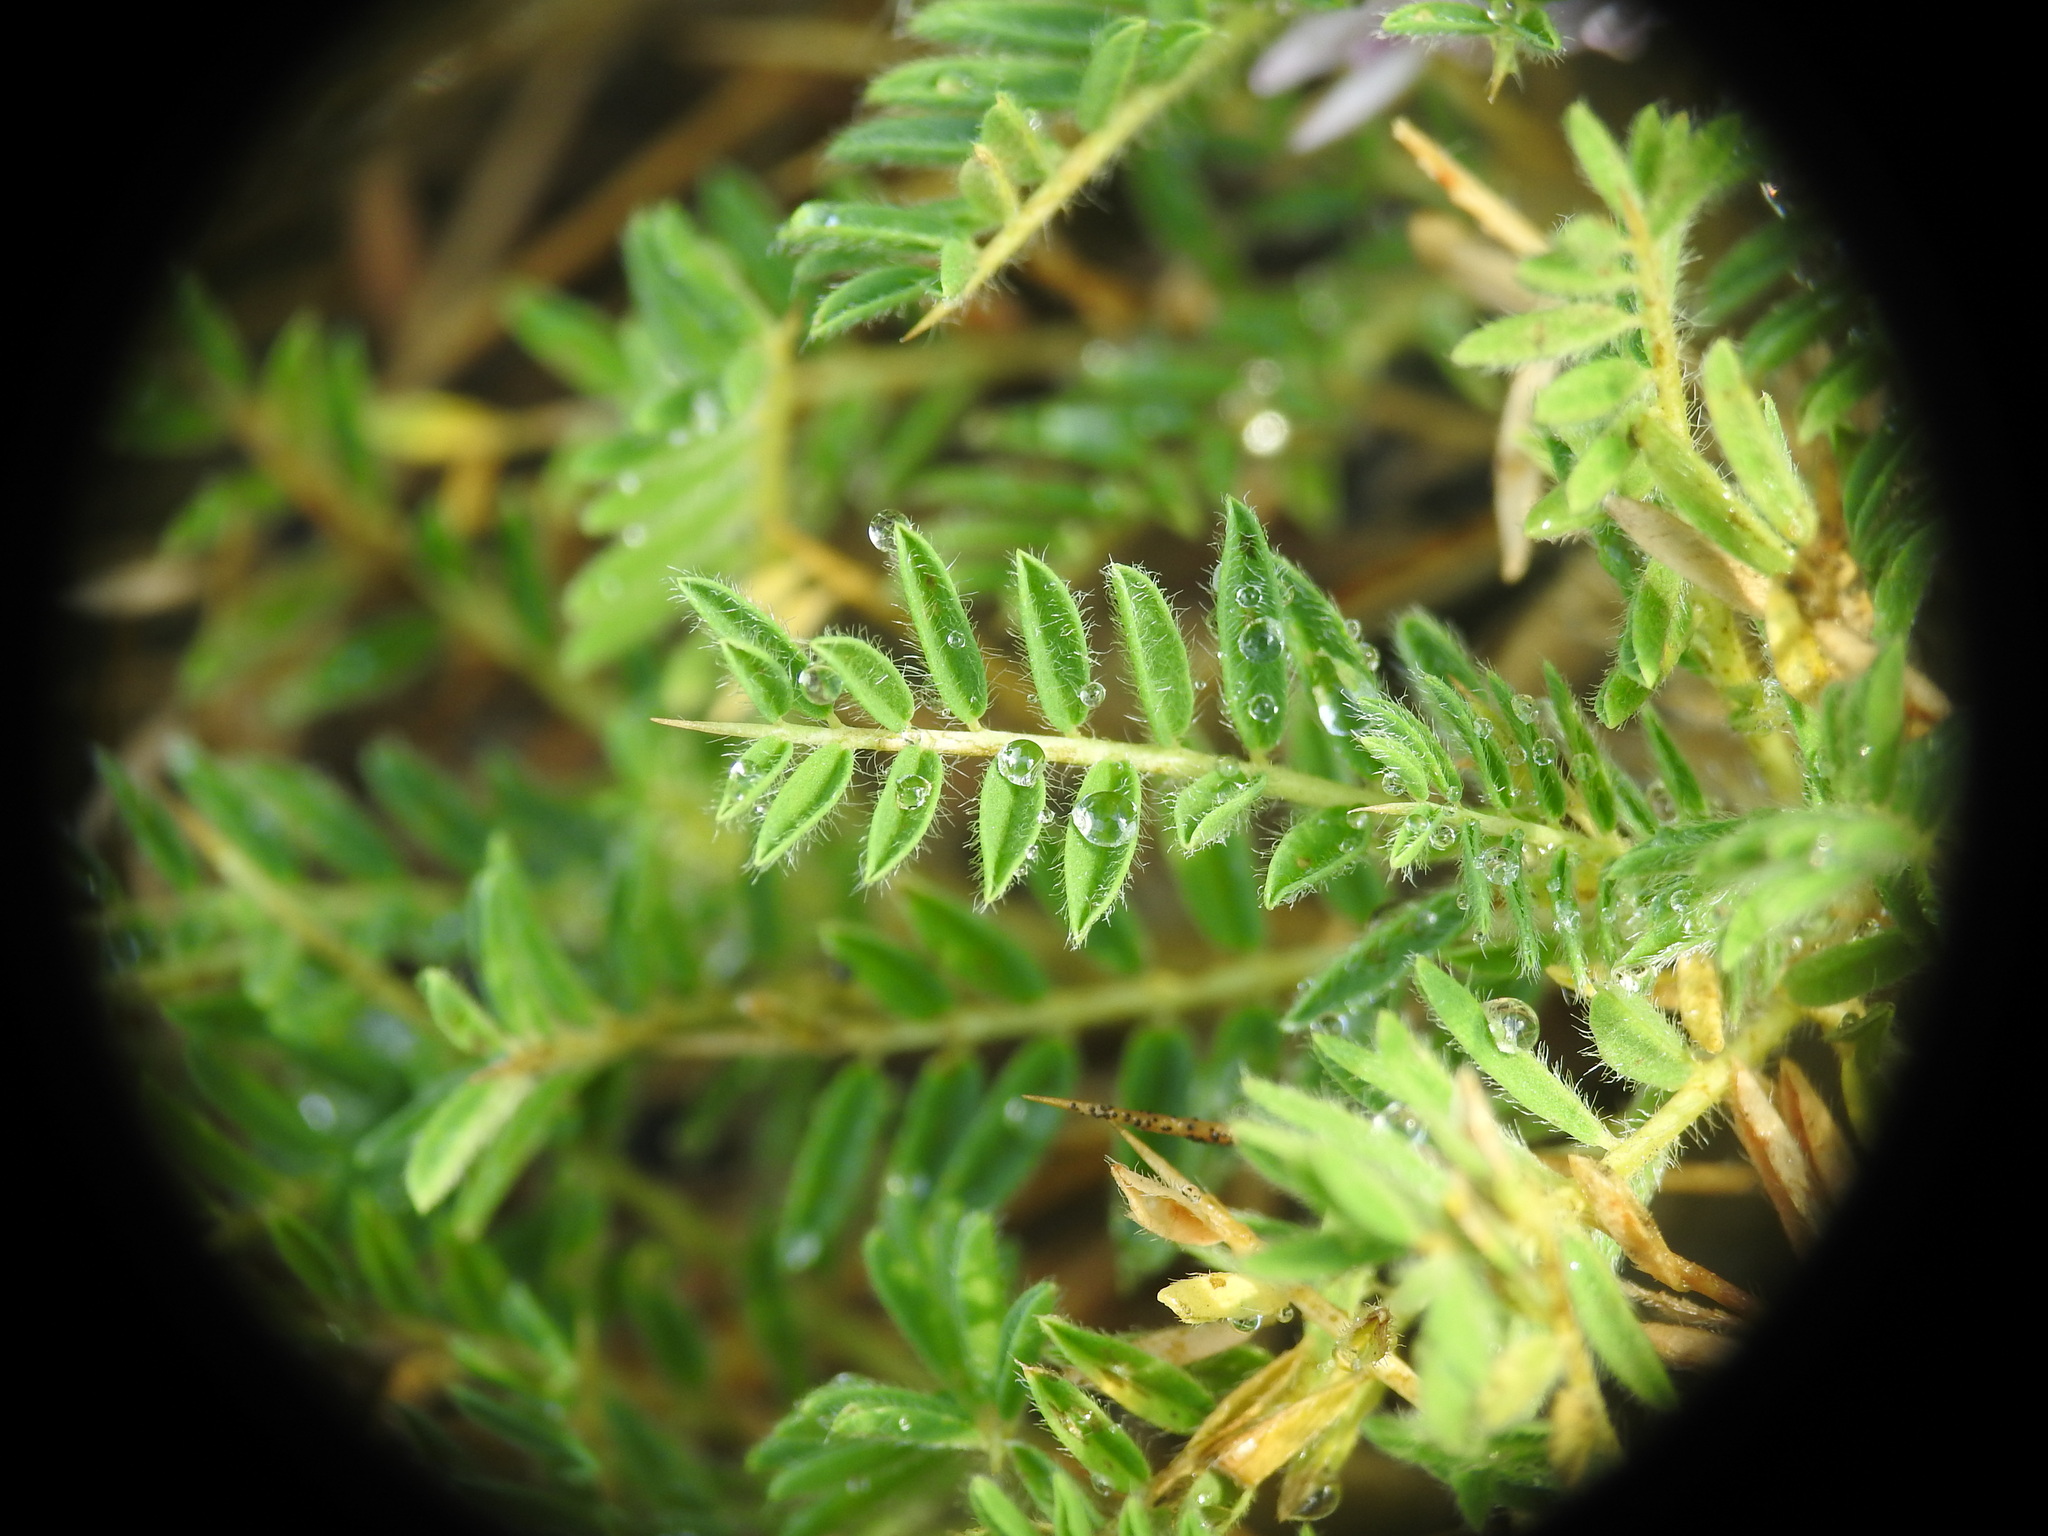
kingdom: Plantae
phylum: Tracheophyta
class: Magnoliopsida
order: Fabales
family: Fabaceae
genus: Astragalus
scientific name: Astragalus sempervirens
